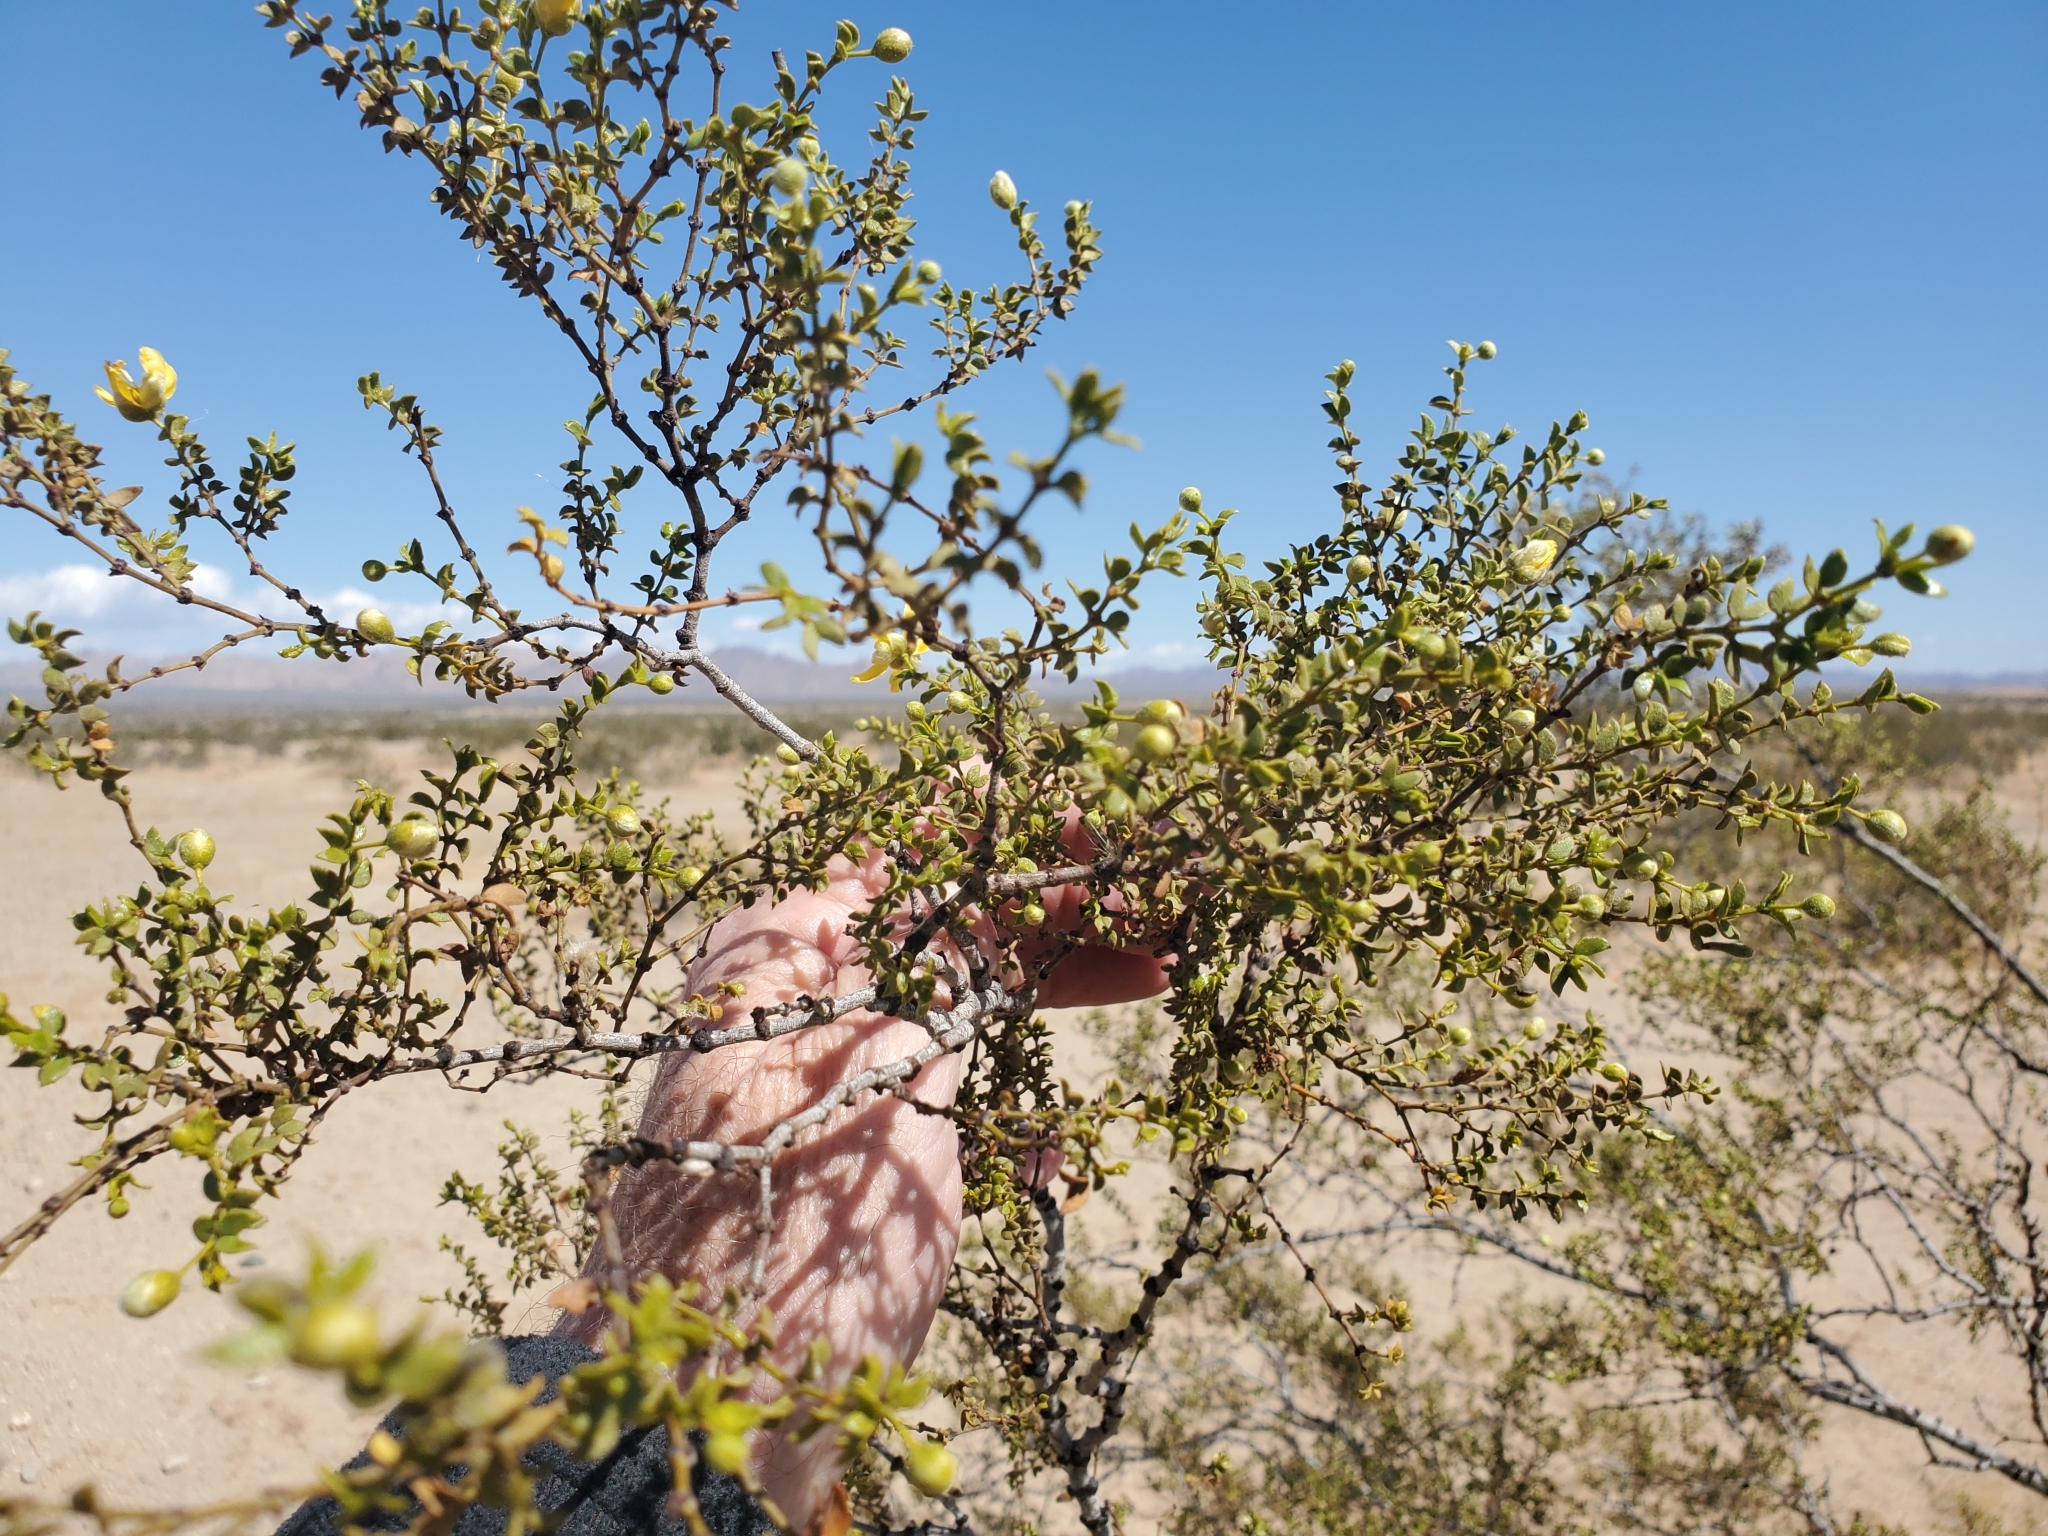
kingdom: Plantae
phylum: Tracheophyta
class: Magnoliopsida
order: Zygophyllales
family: Zygophyllaceae
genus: Larrea
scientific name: Larrea tridentata
